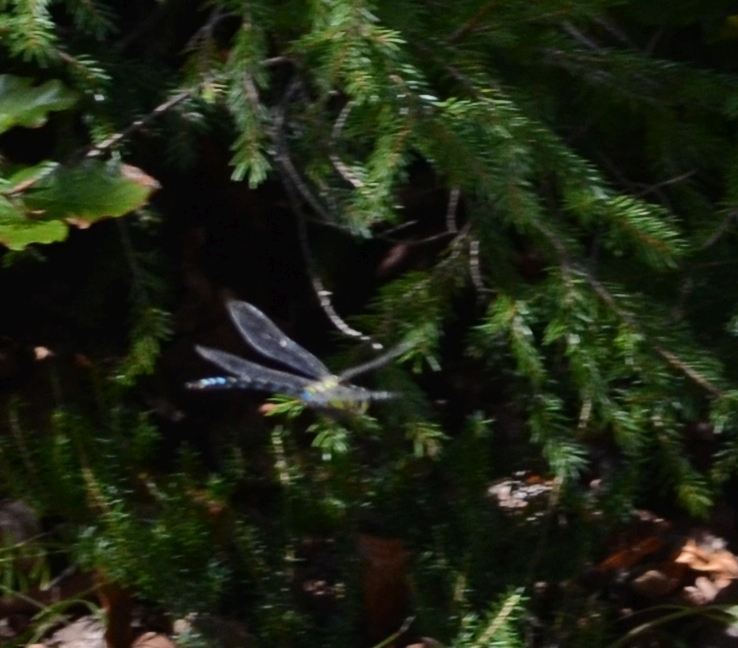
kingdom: Animalia
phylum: Arthropoda
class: Insecta
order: Odonata
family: Aeshnidae
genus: Aeshna
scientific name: Aeshna cyanea
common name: Southern hawker
